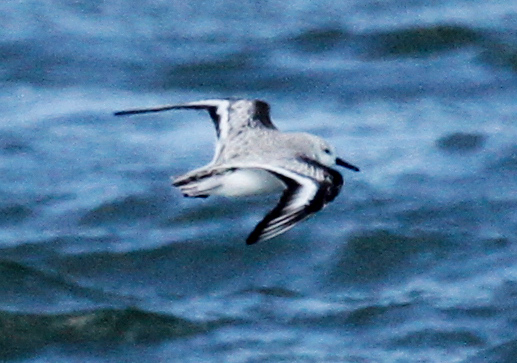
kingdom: Animalia
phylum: Chordata
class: Aves
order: Charadriiformes
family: Scolopacidae
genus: Calidris
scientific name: Calidris alba
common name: Sanderling
